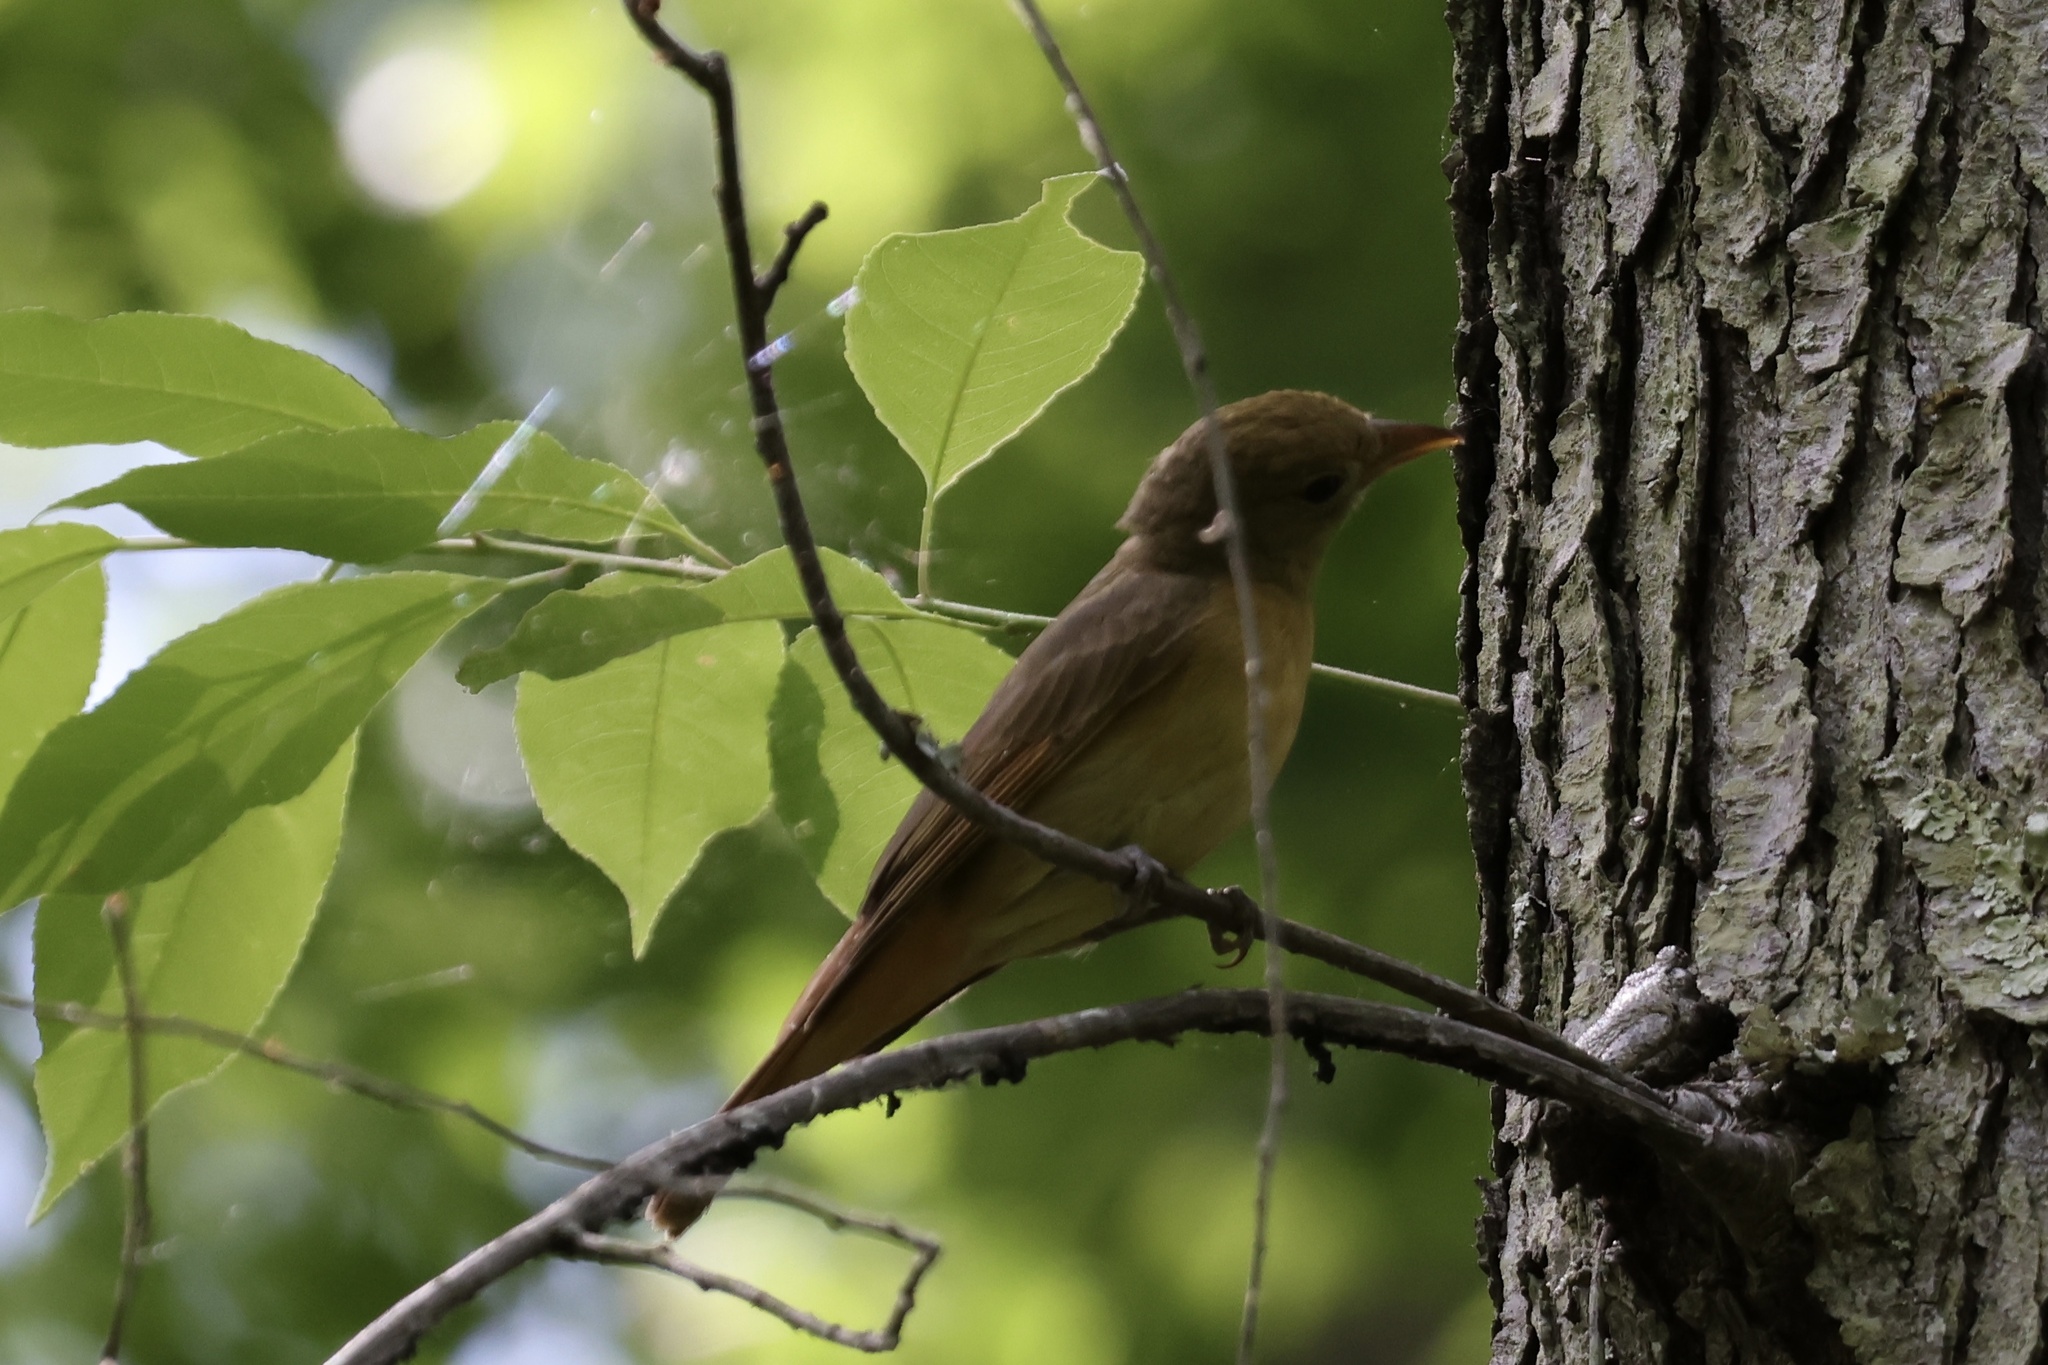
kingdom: Animalia
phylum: Chordata
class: Aves
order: Passeriformes
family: Cardinalidae
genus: Piranga
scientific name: Piranga rubra
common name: Summer tanager
